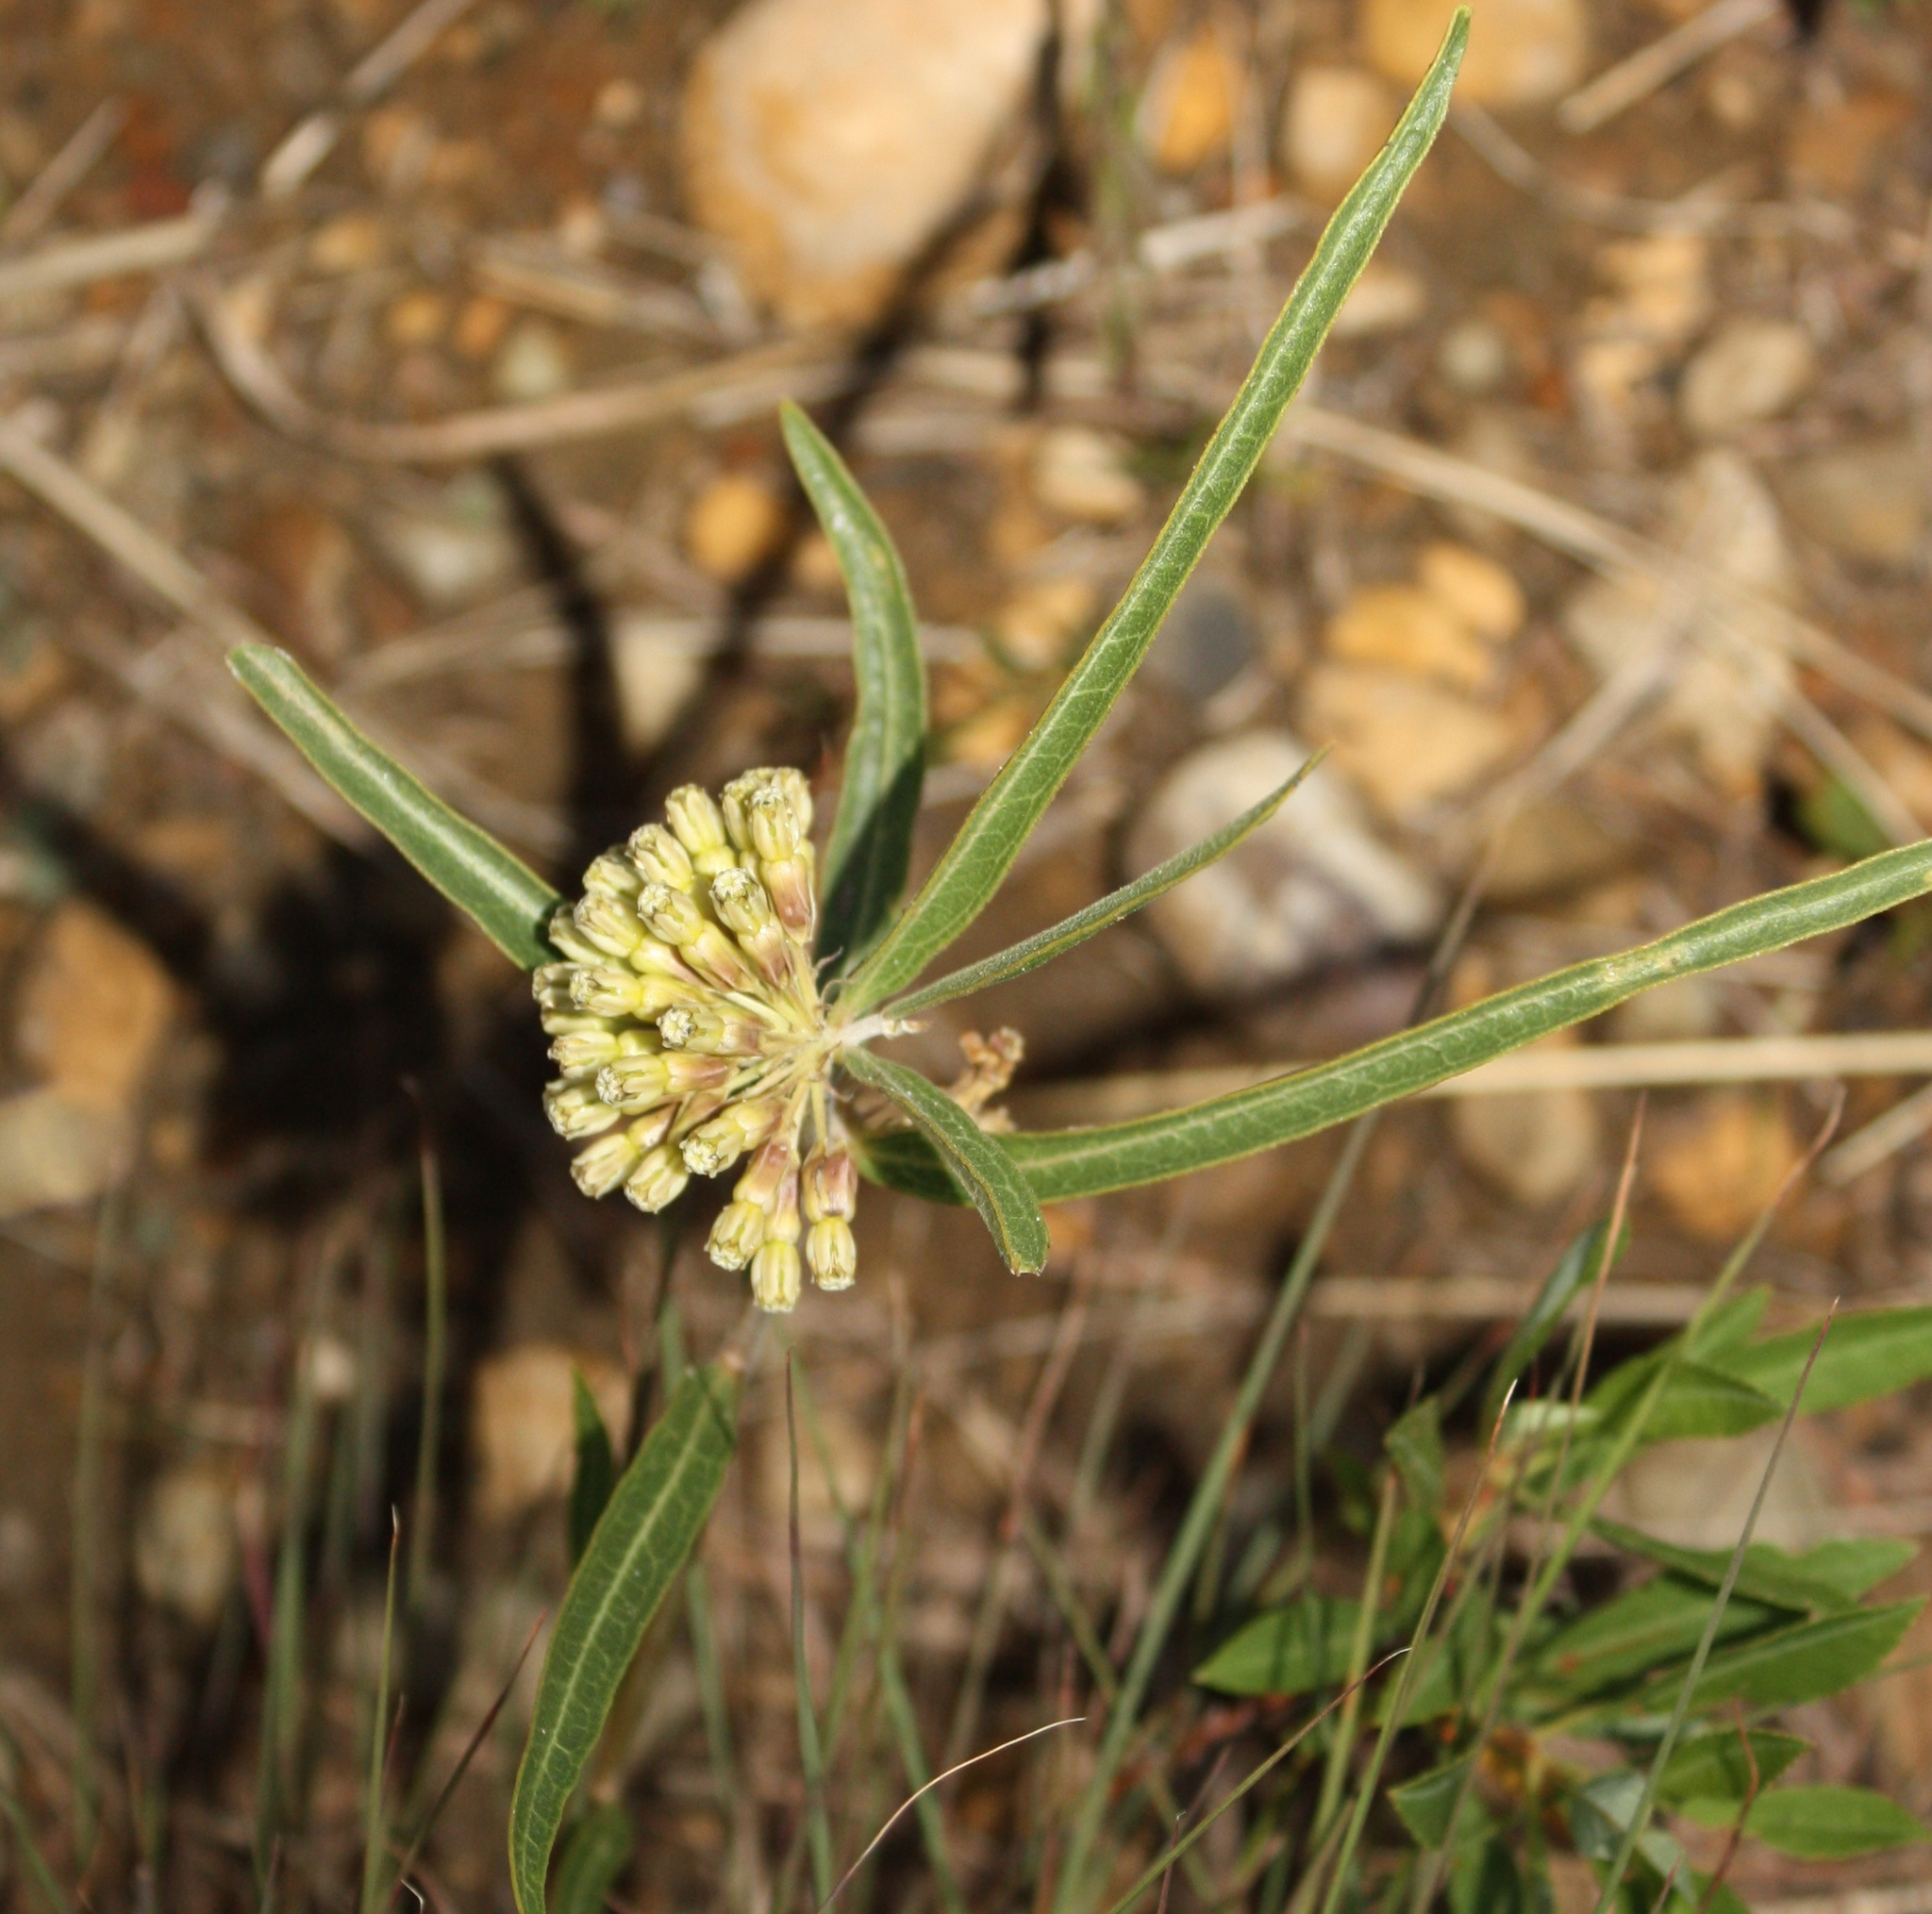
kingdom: Plantae
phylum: Tracheophyta
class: Magnoliopsida
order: Gentianales
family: Apocynaceae
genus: Asclepias
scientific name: Asclepias viridiflora
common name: Green comet milkweed
